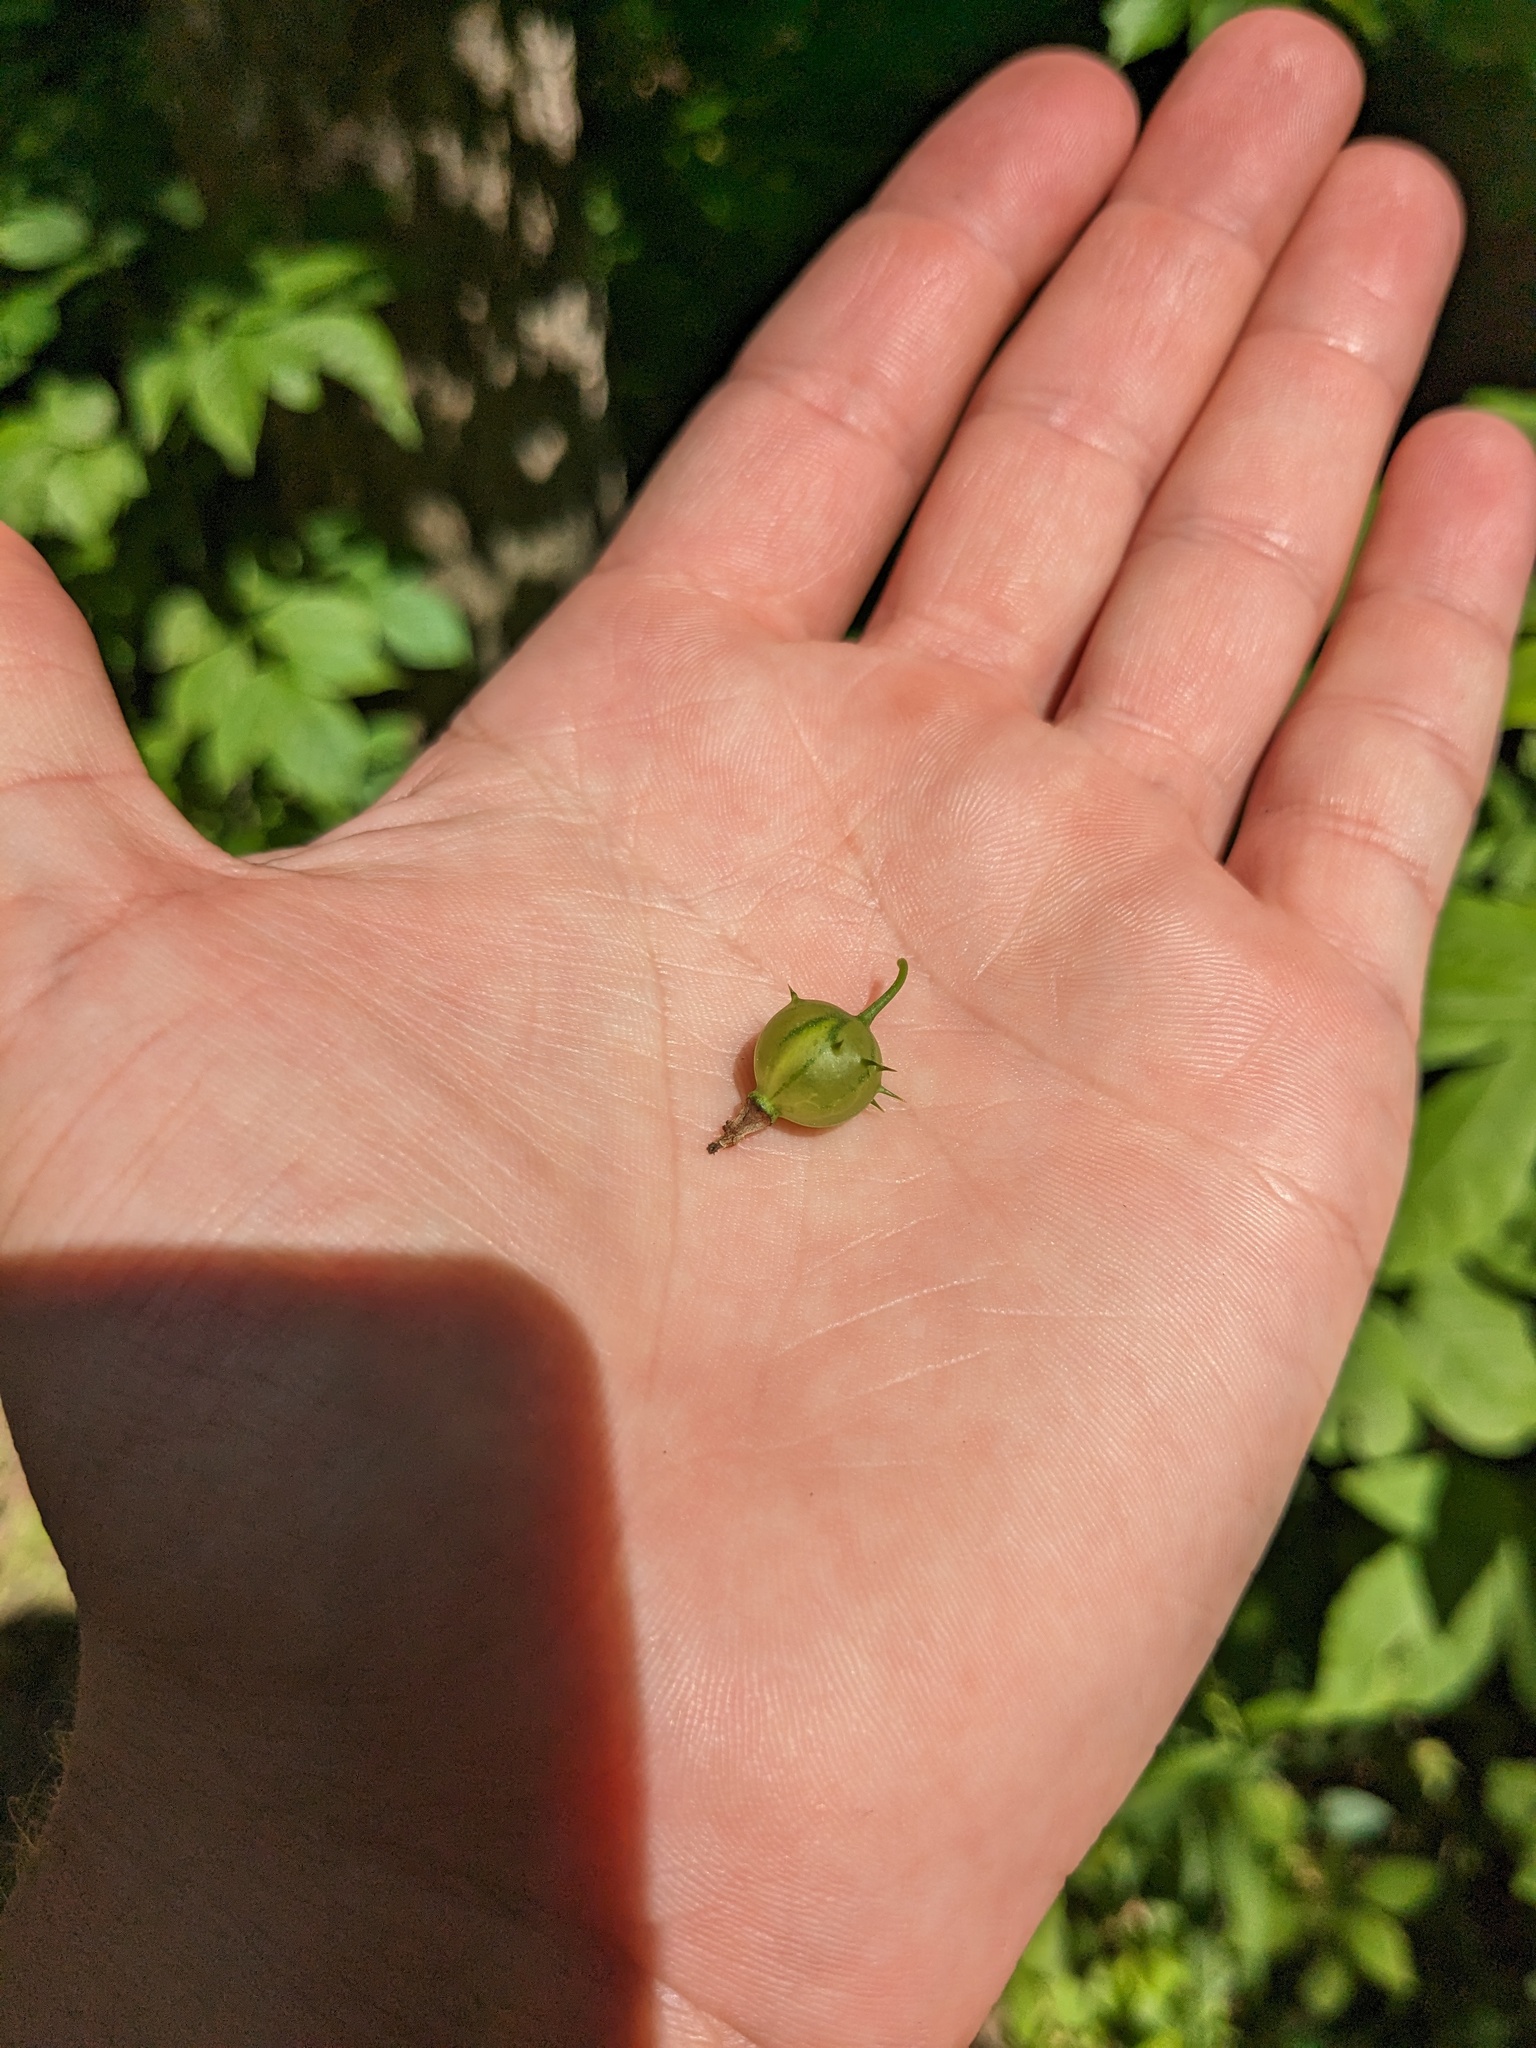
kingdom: Plantae
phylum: Tracheophyta
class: Magnoliopsida
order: Saxifragales
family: Grossulariaceae
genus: Ribes
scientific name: Ribes cynosbati
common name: American gooseberry
